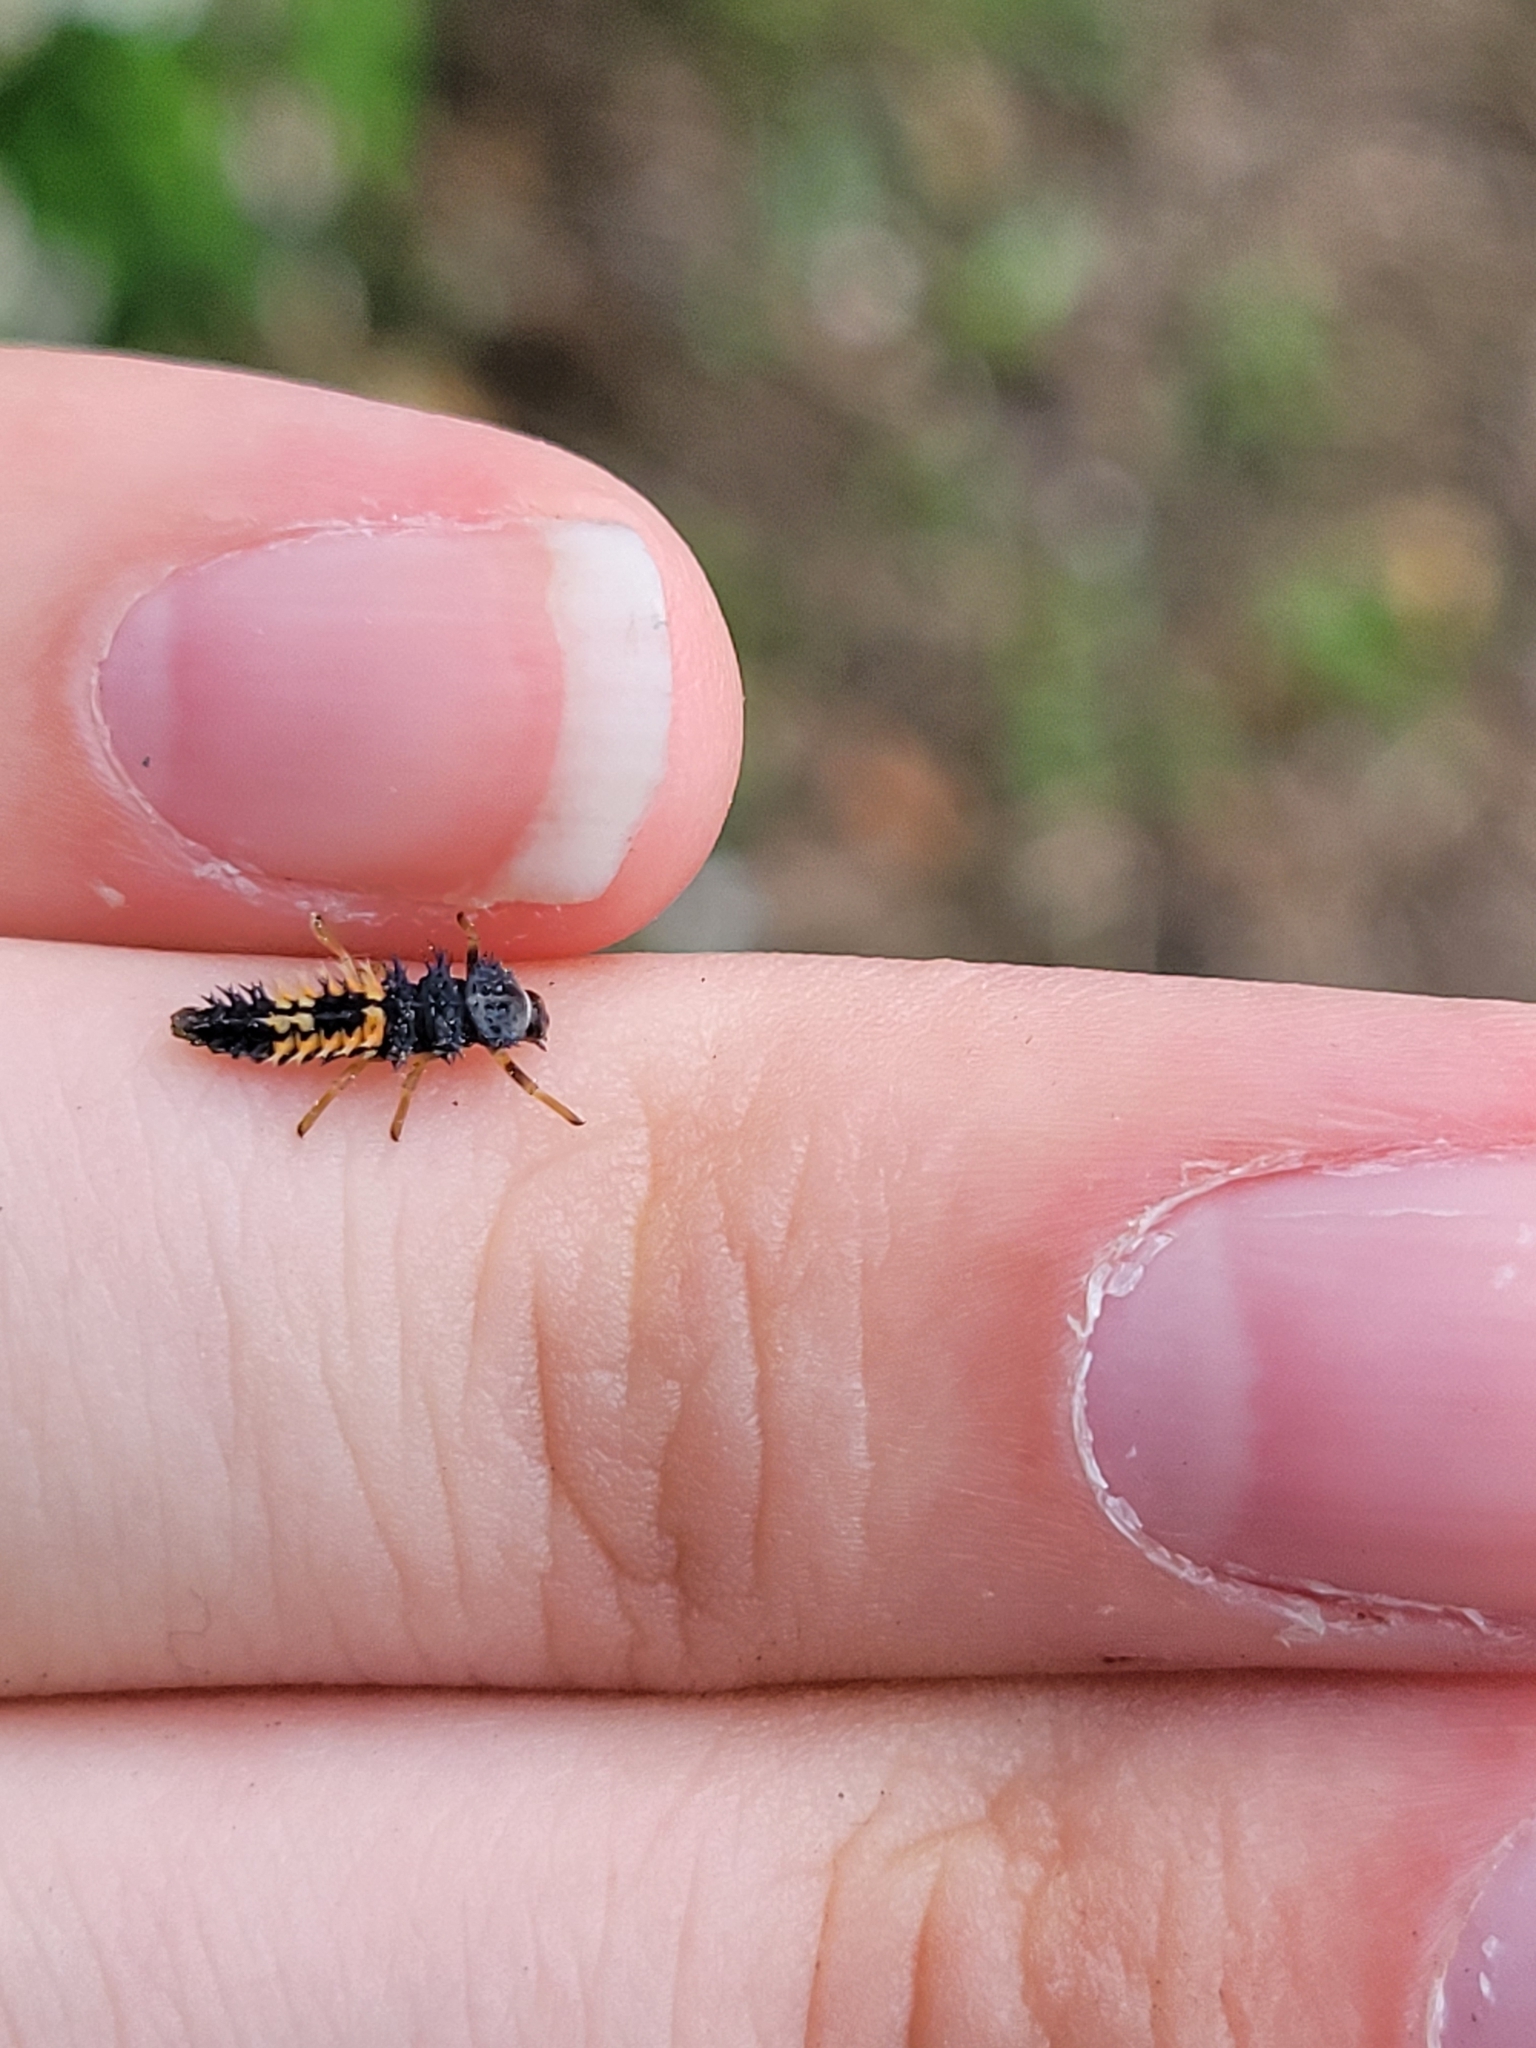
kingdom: Animalia
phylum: Arthropoda
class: Insecta
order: Coleoptera
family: Coccinellidae
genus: Harmonia
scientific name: Harmonia axyridis
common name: Harlequin ladybird
